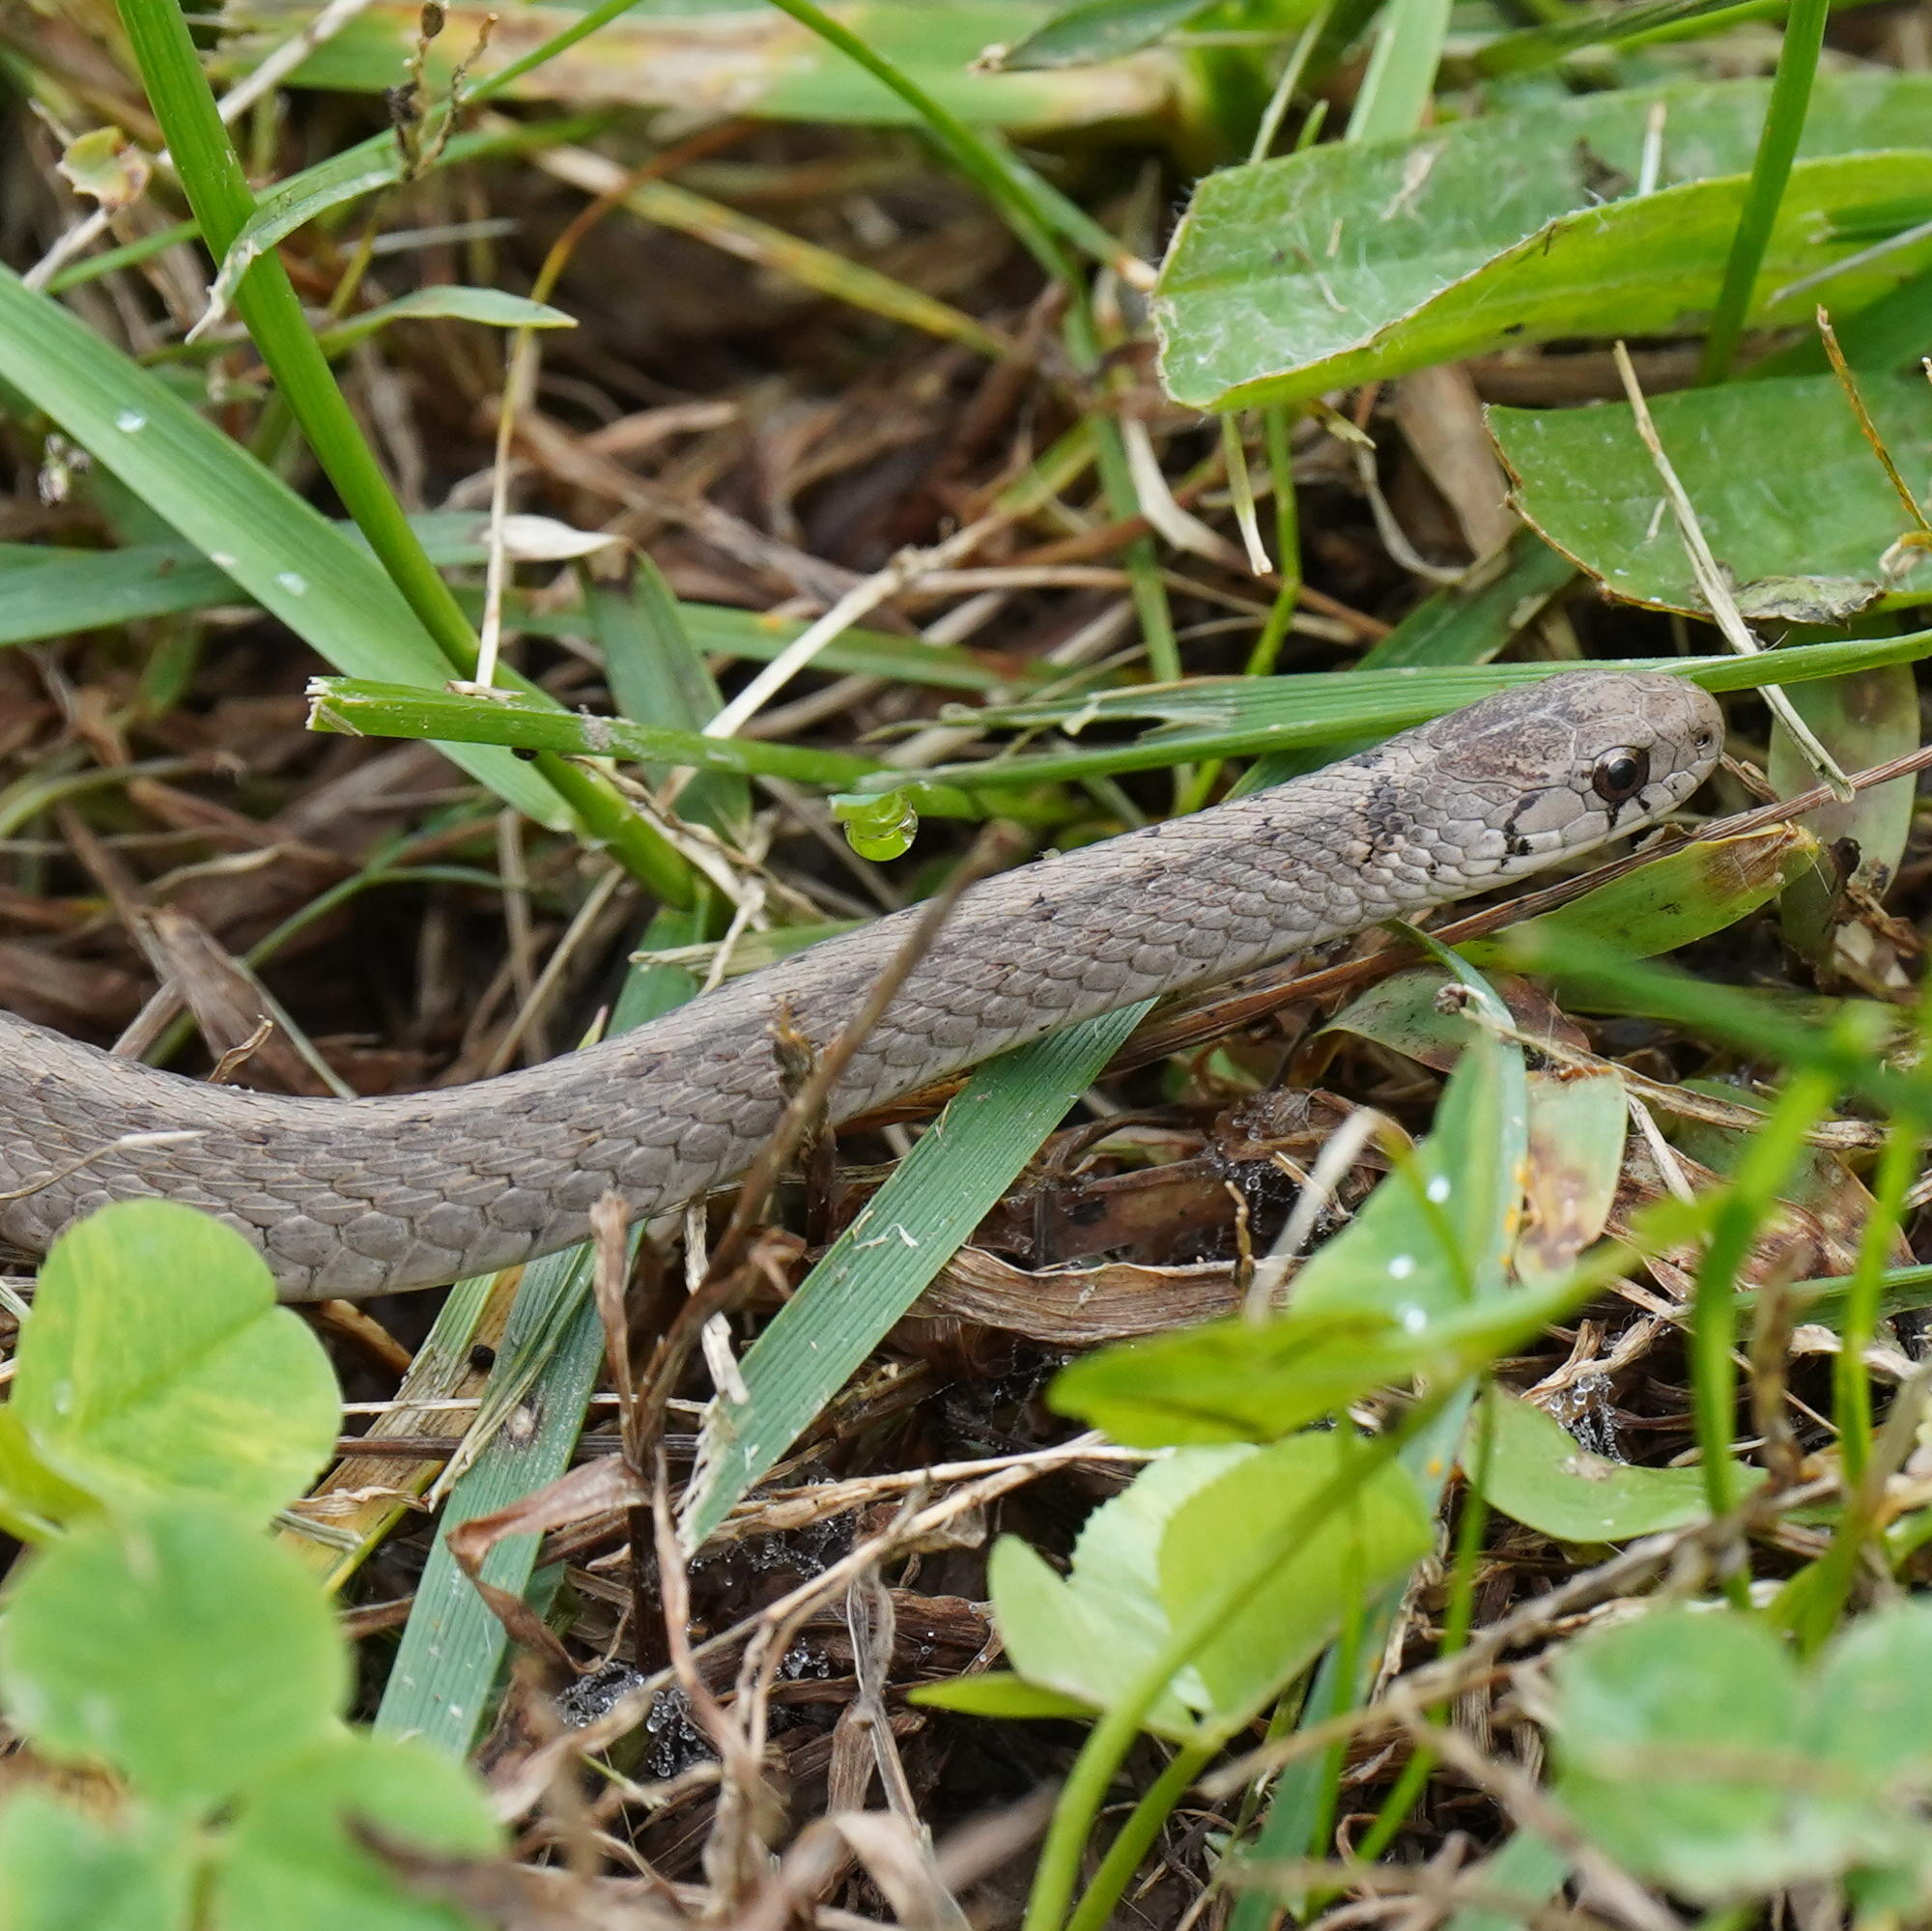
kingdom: Animalia
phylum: Chordata
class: Squamata
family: Colubridae
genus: Storeria
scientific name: Storeria dekayi
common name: (dekay’s) brown snake
